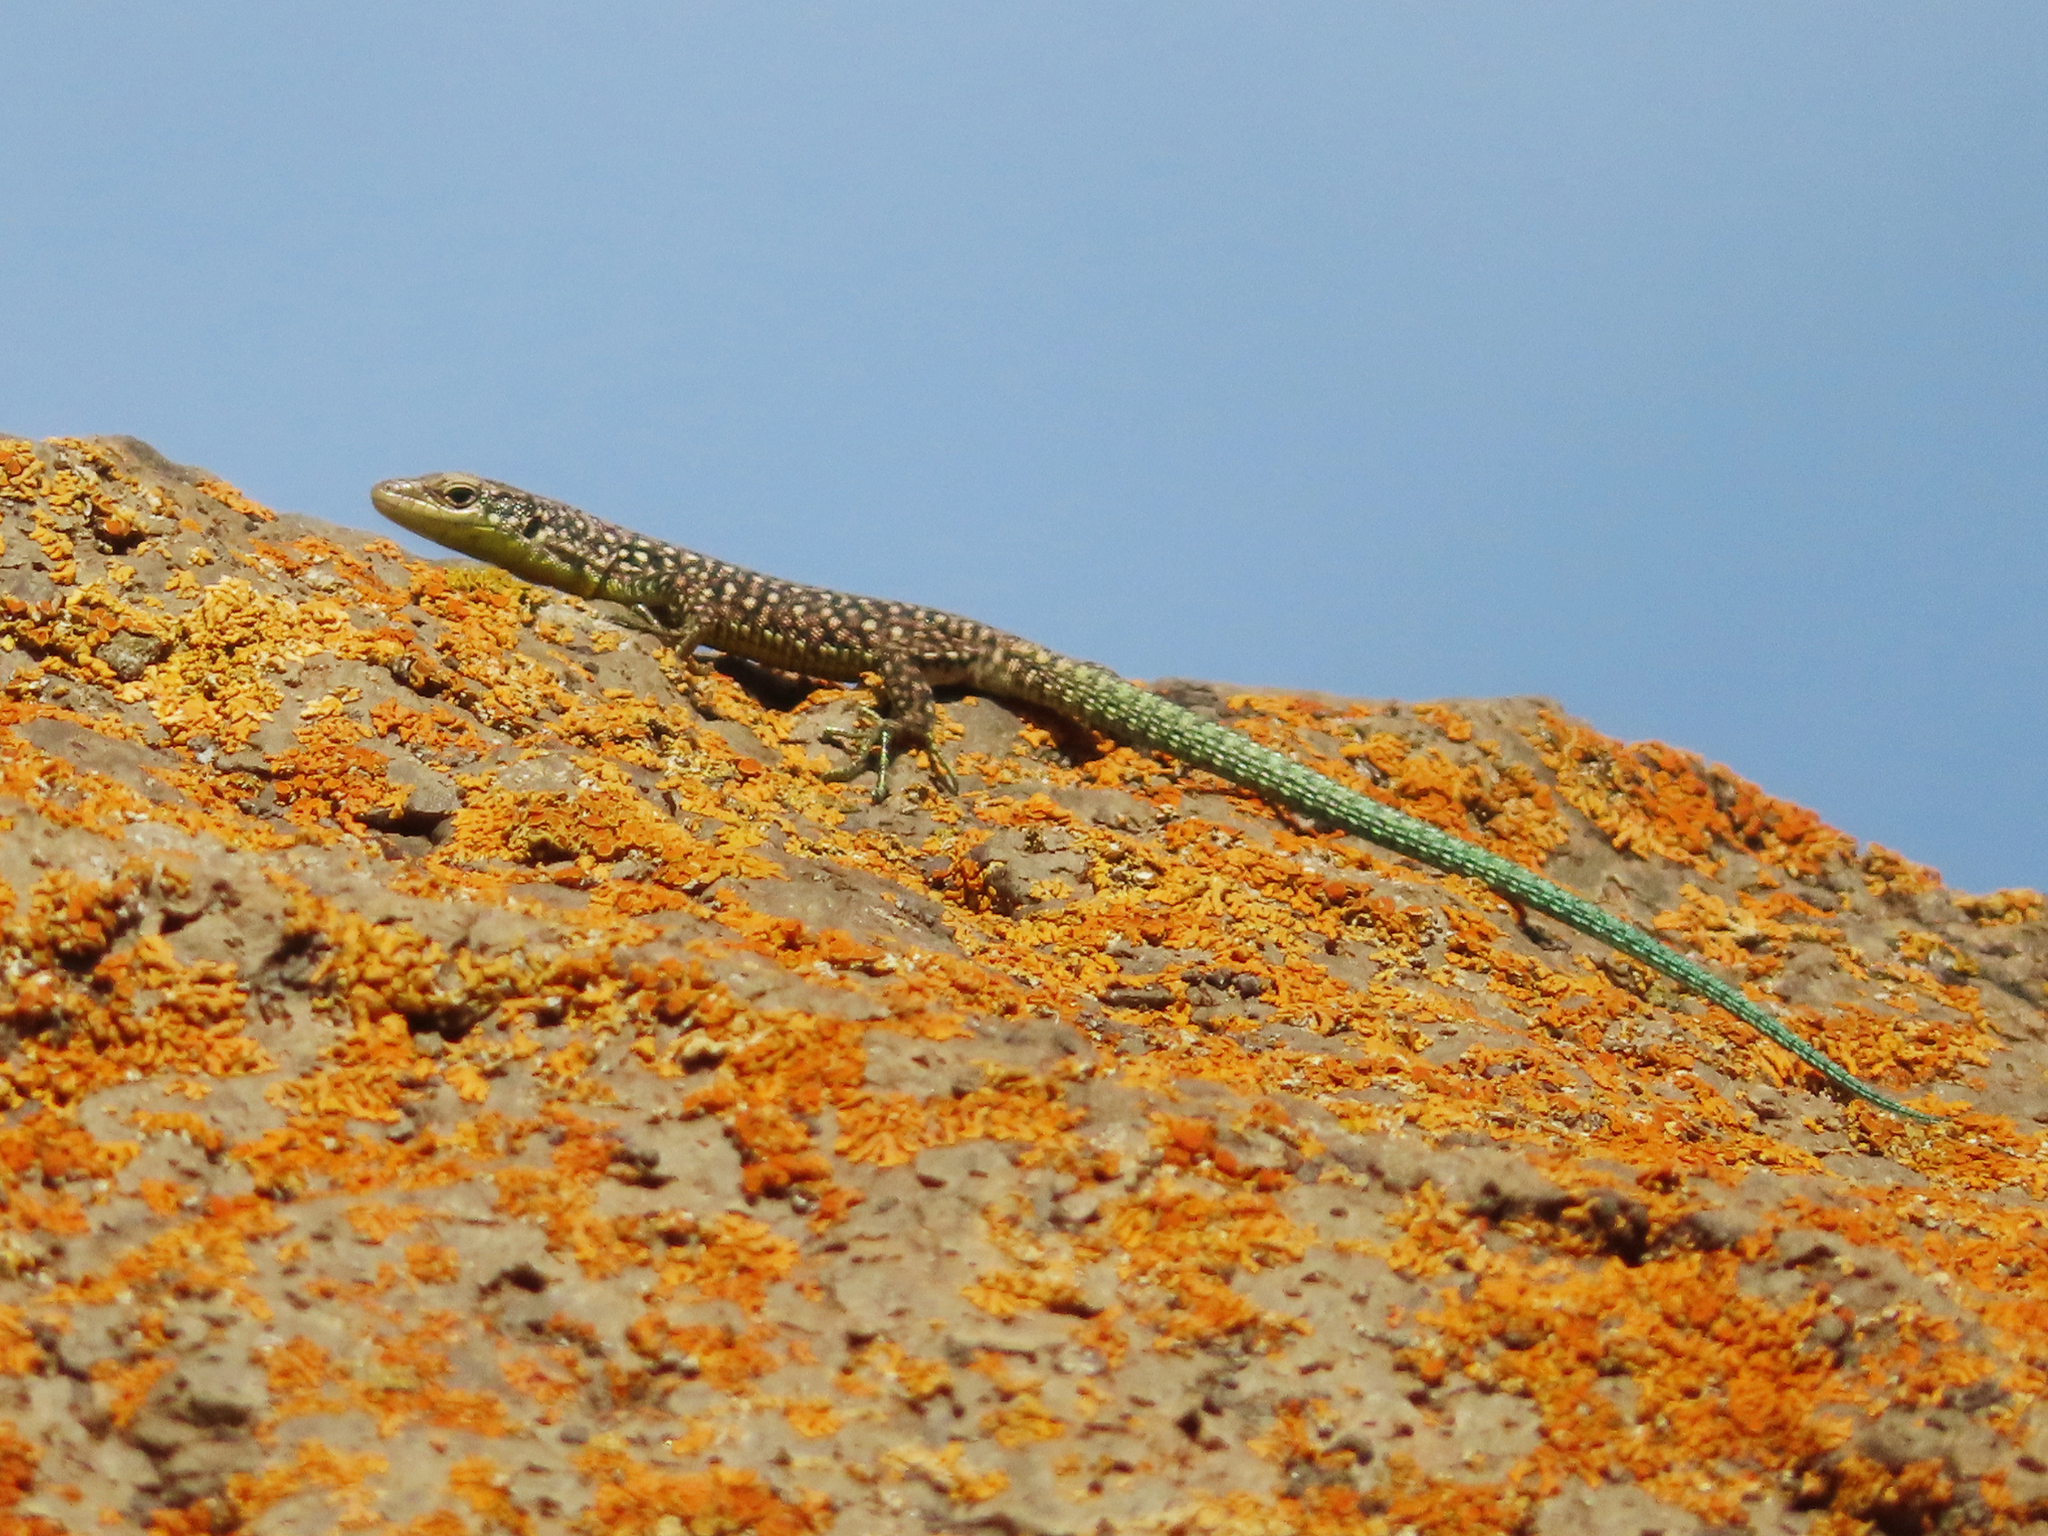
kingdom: Animalia
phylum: Chordata
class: Squamata
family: Lacertidae
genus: Darevskia
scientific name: Darevskia
